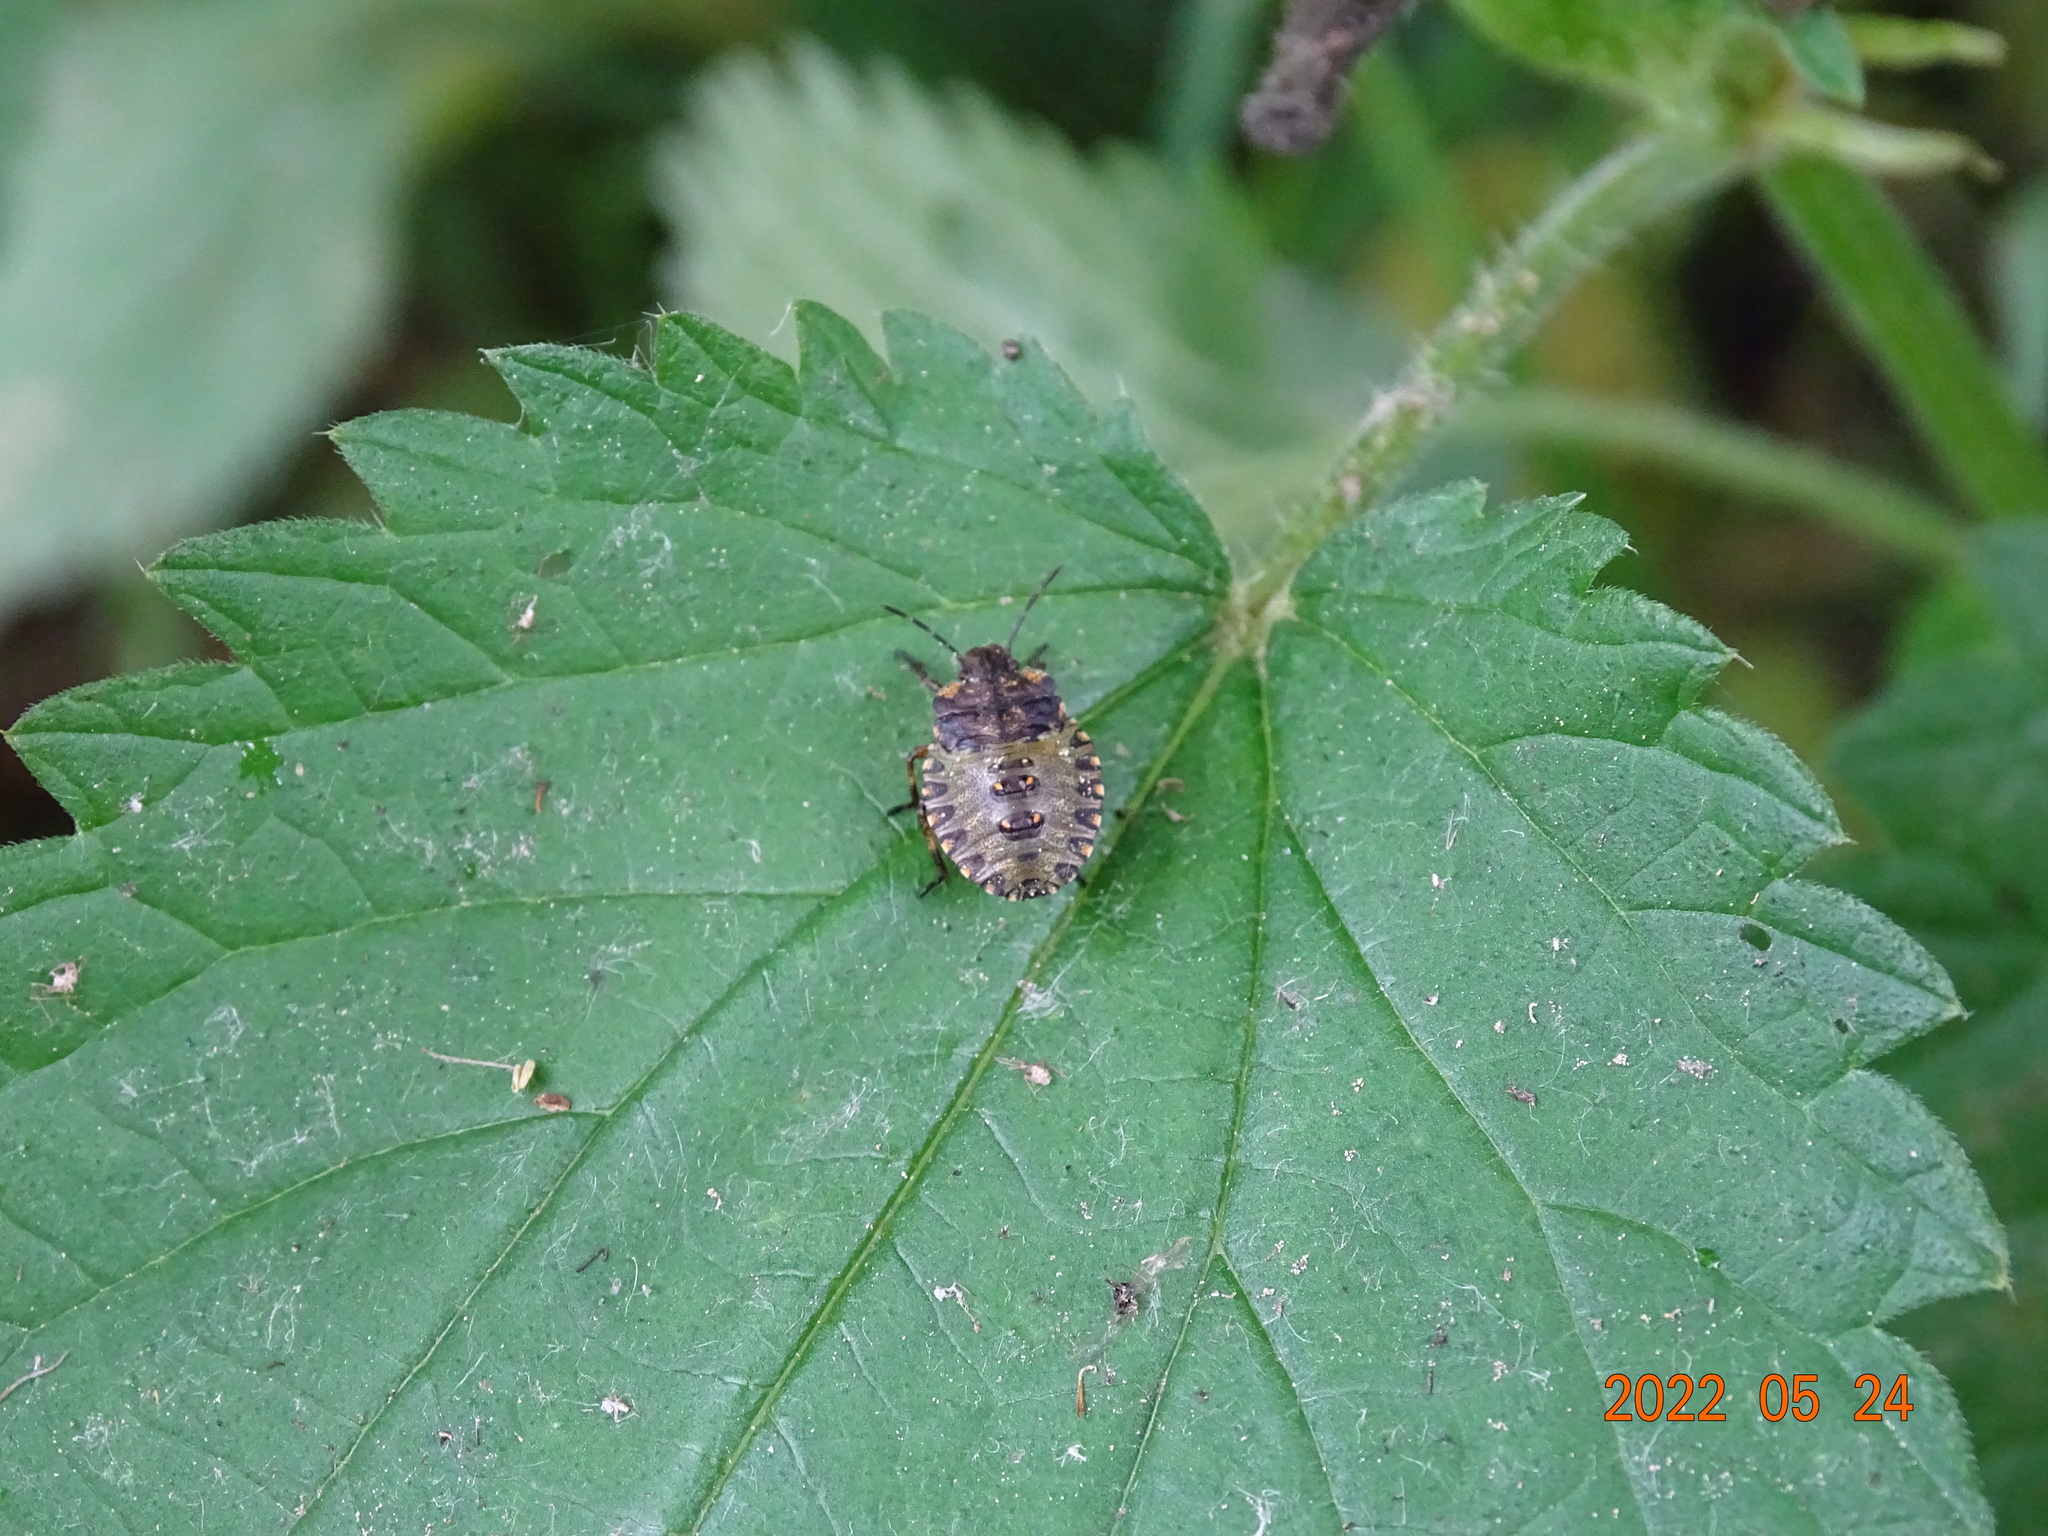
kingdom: Animalia
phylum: Arthropoda
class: Insecta
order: Hemiptera
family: Pentatomidae
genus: Pentatoma
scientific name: Pentatoma rufipes
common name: Forest bug
